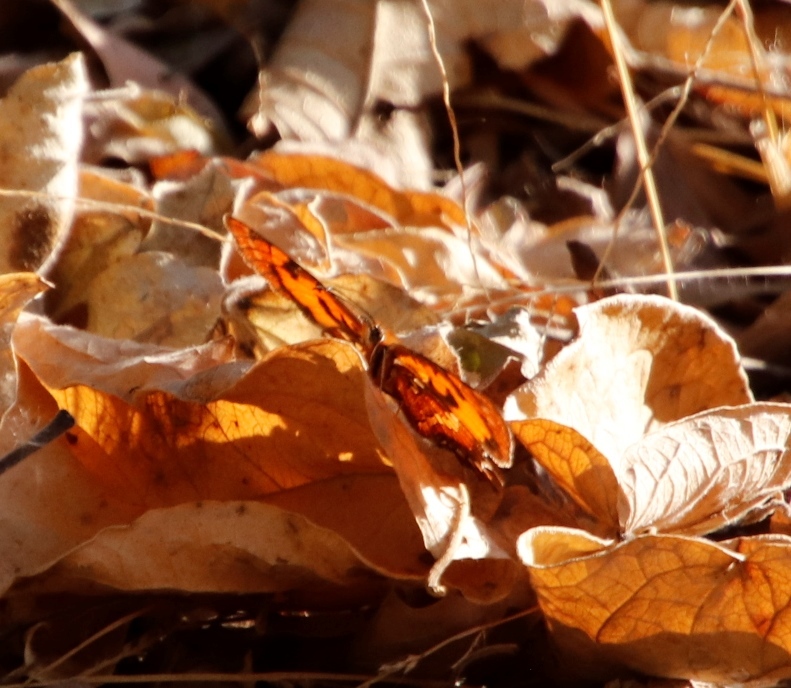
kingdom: Animalia
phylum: Arthropoda
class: Insecta
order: Lepidoptera
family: Nymphalidae
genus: Byblia
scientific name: Byblia anvatara
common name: African joker
